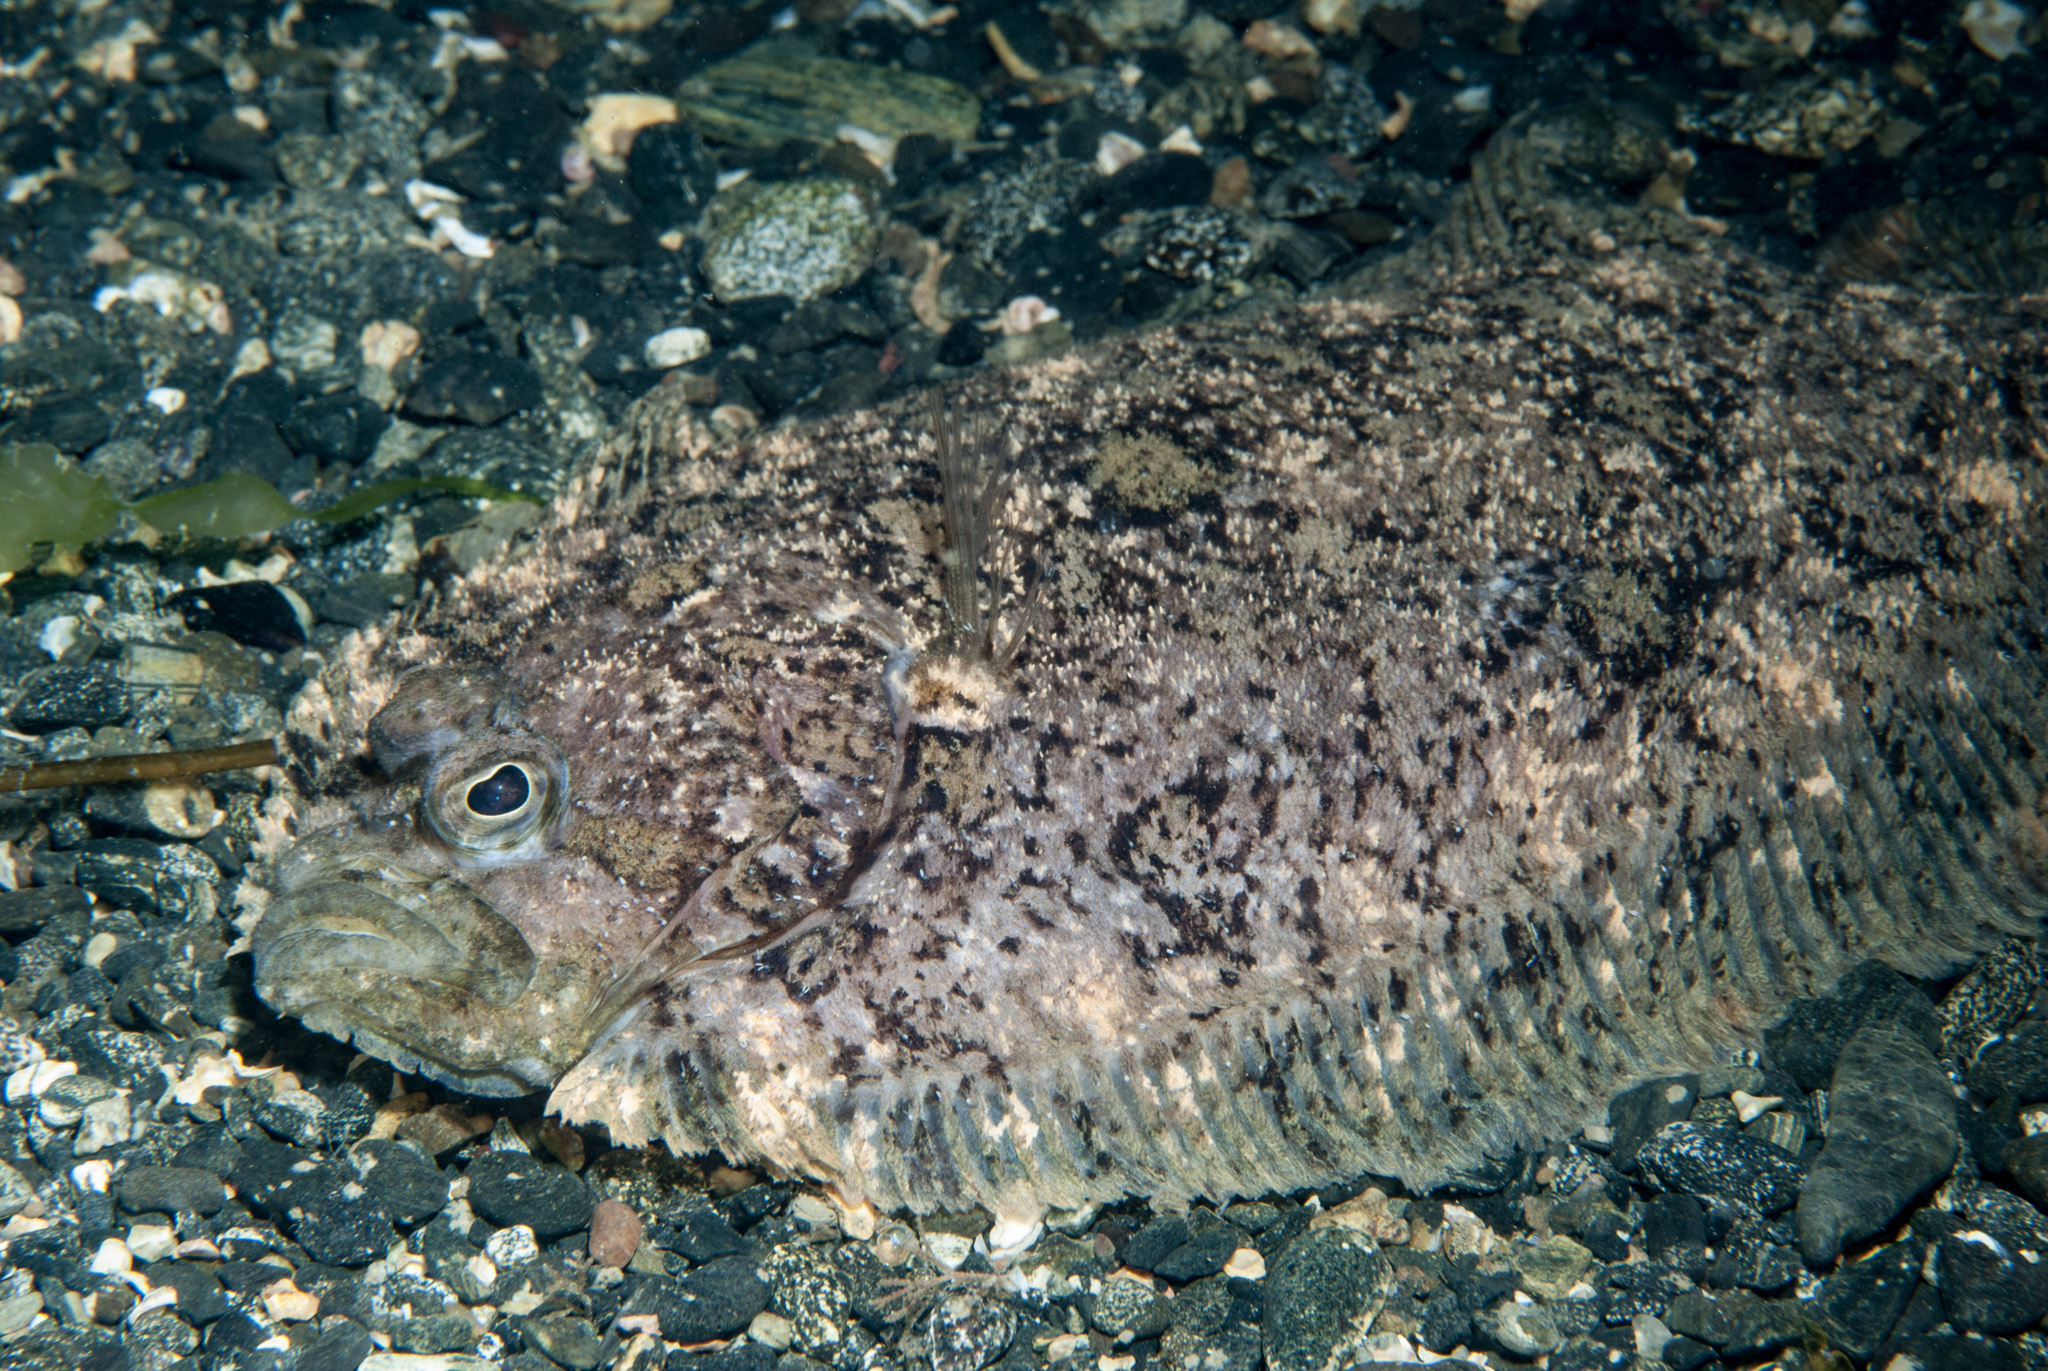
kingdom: Animalia
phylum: Chordata
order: Pleuronectiformes
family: Scophthalmidae
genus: Zeugopterus
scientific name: Zeugopterus punctatus
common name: Topknot
